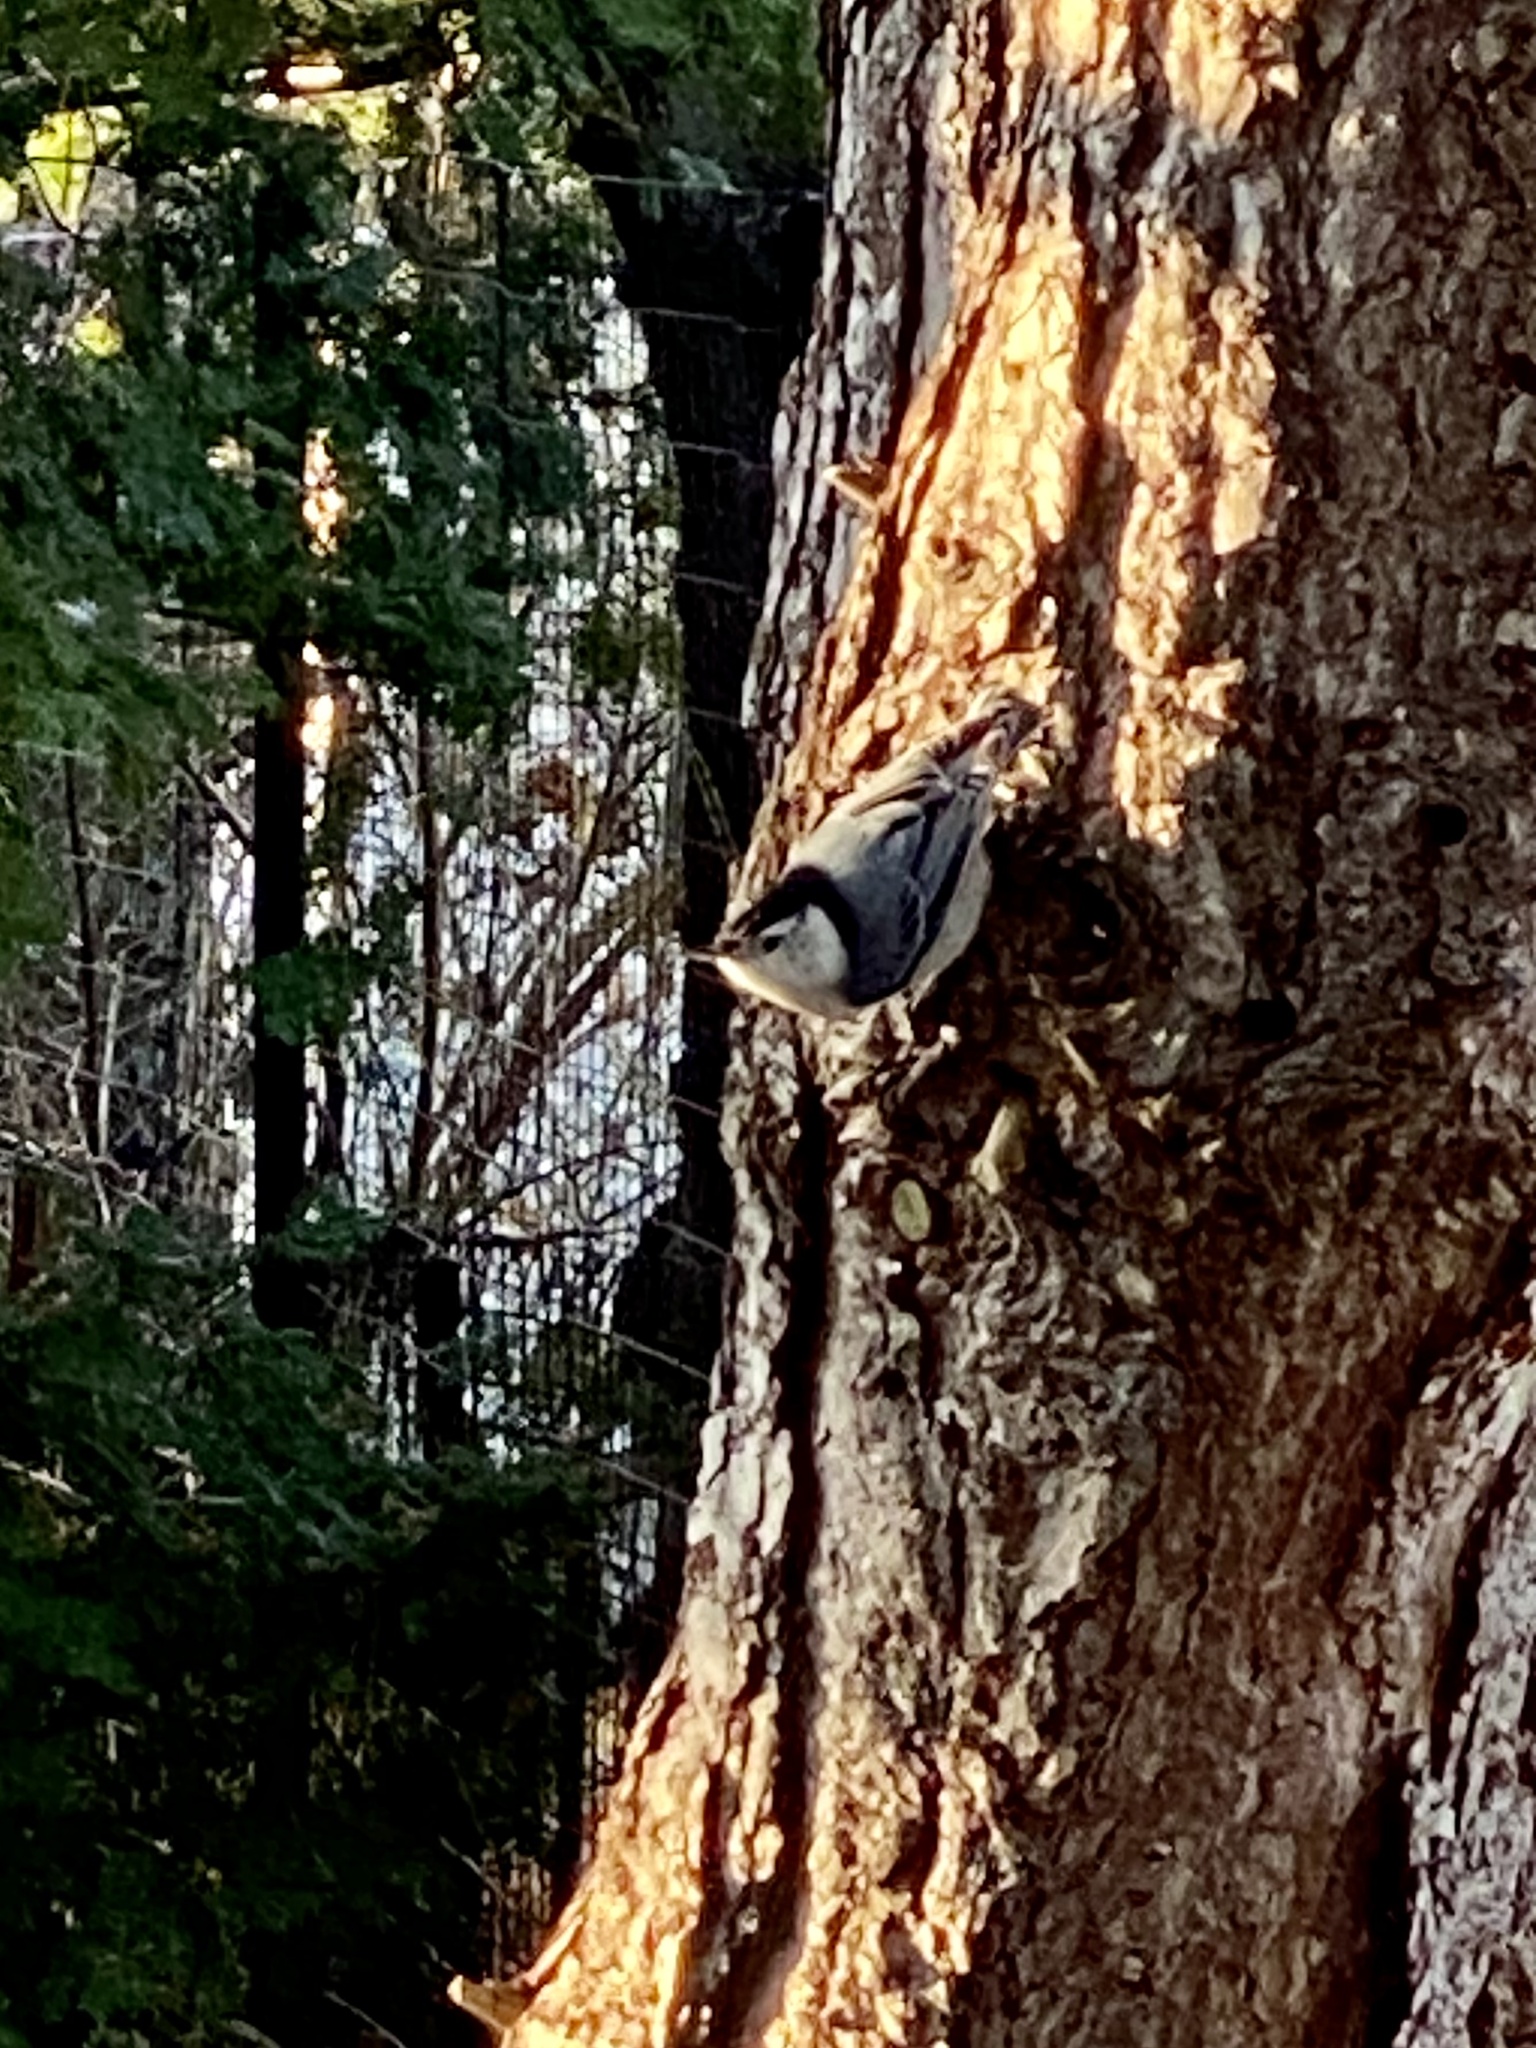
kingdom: Animalia
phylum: Chordata
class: Aves
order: Passeriformes
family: Sittidae
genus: Sitta
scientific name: Sitta carolinensis
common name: White-breasted nuthatch
